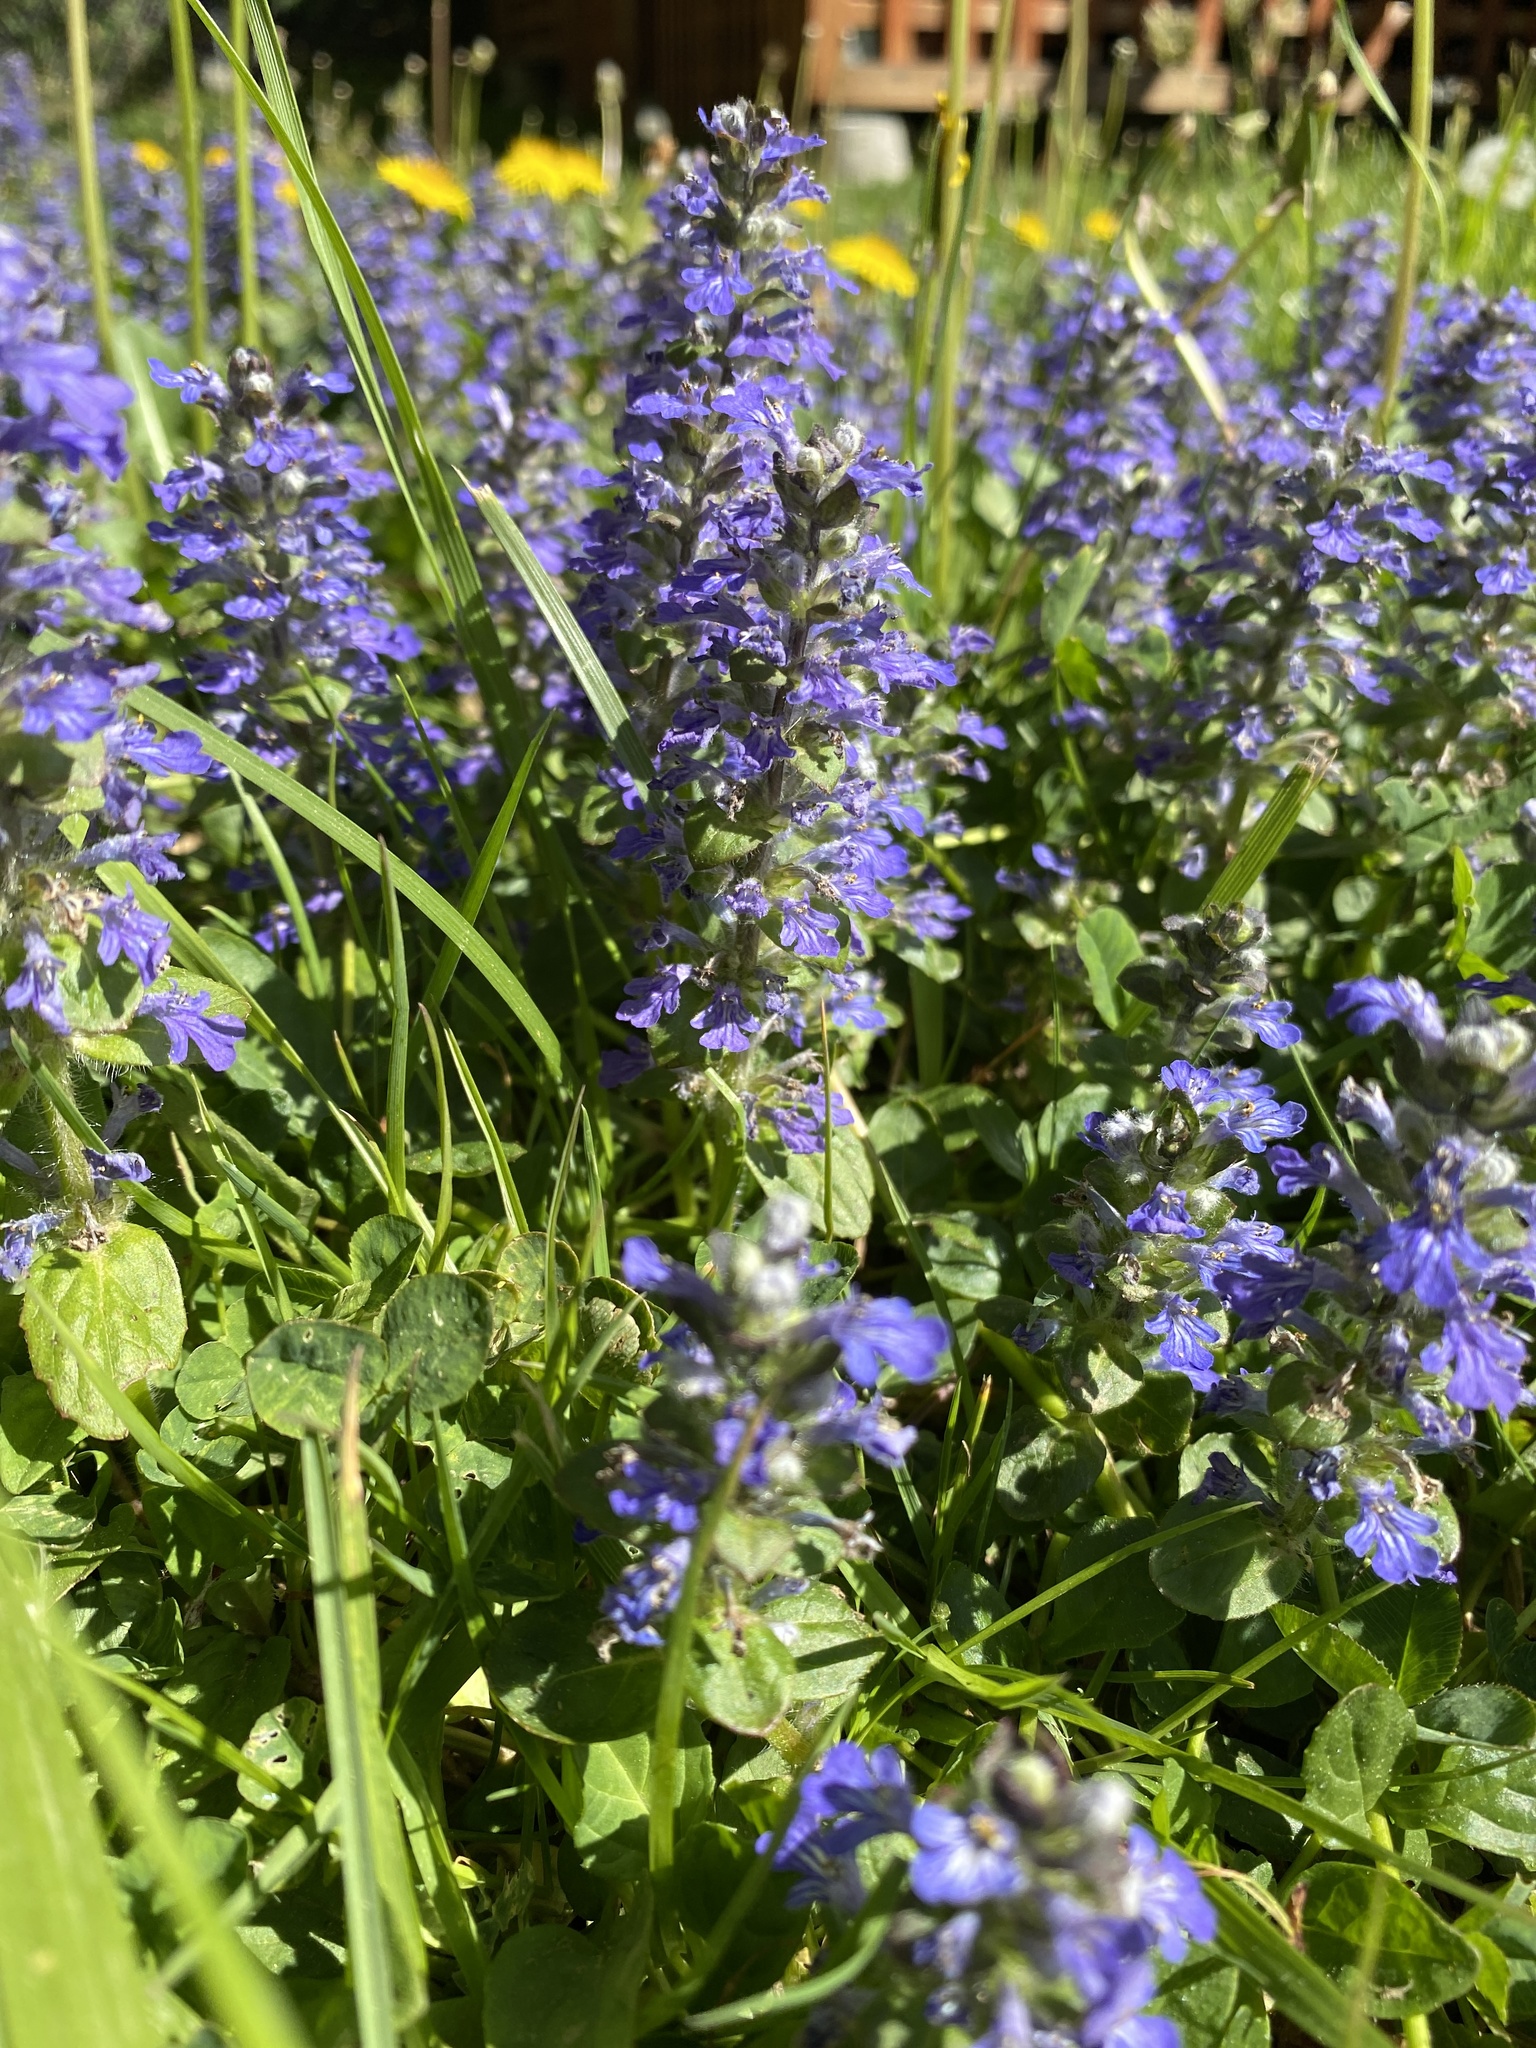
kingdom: Plantae
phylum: Tracheophyta
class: Magnoliopsida
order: Lamiales
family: Lamiaceae
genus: Ajuga
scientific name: Ajuga reptans
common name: Bugle
